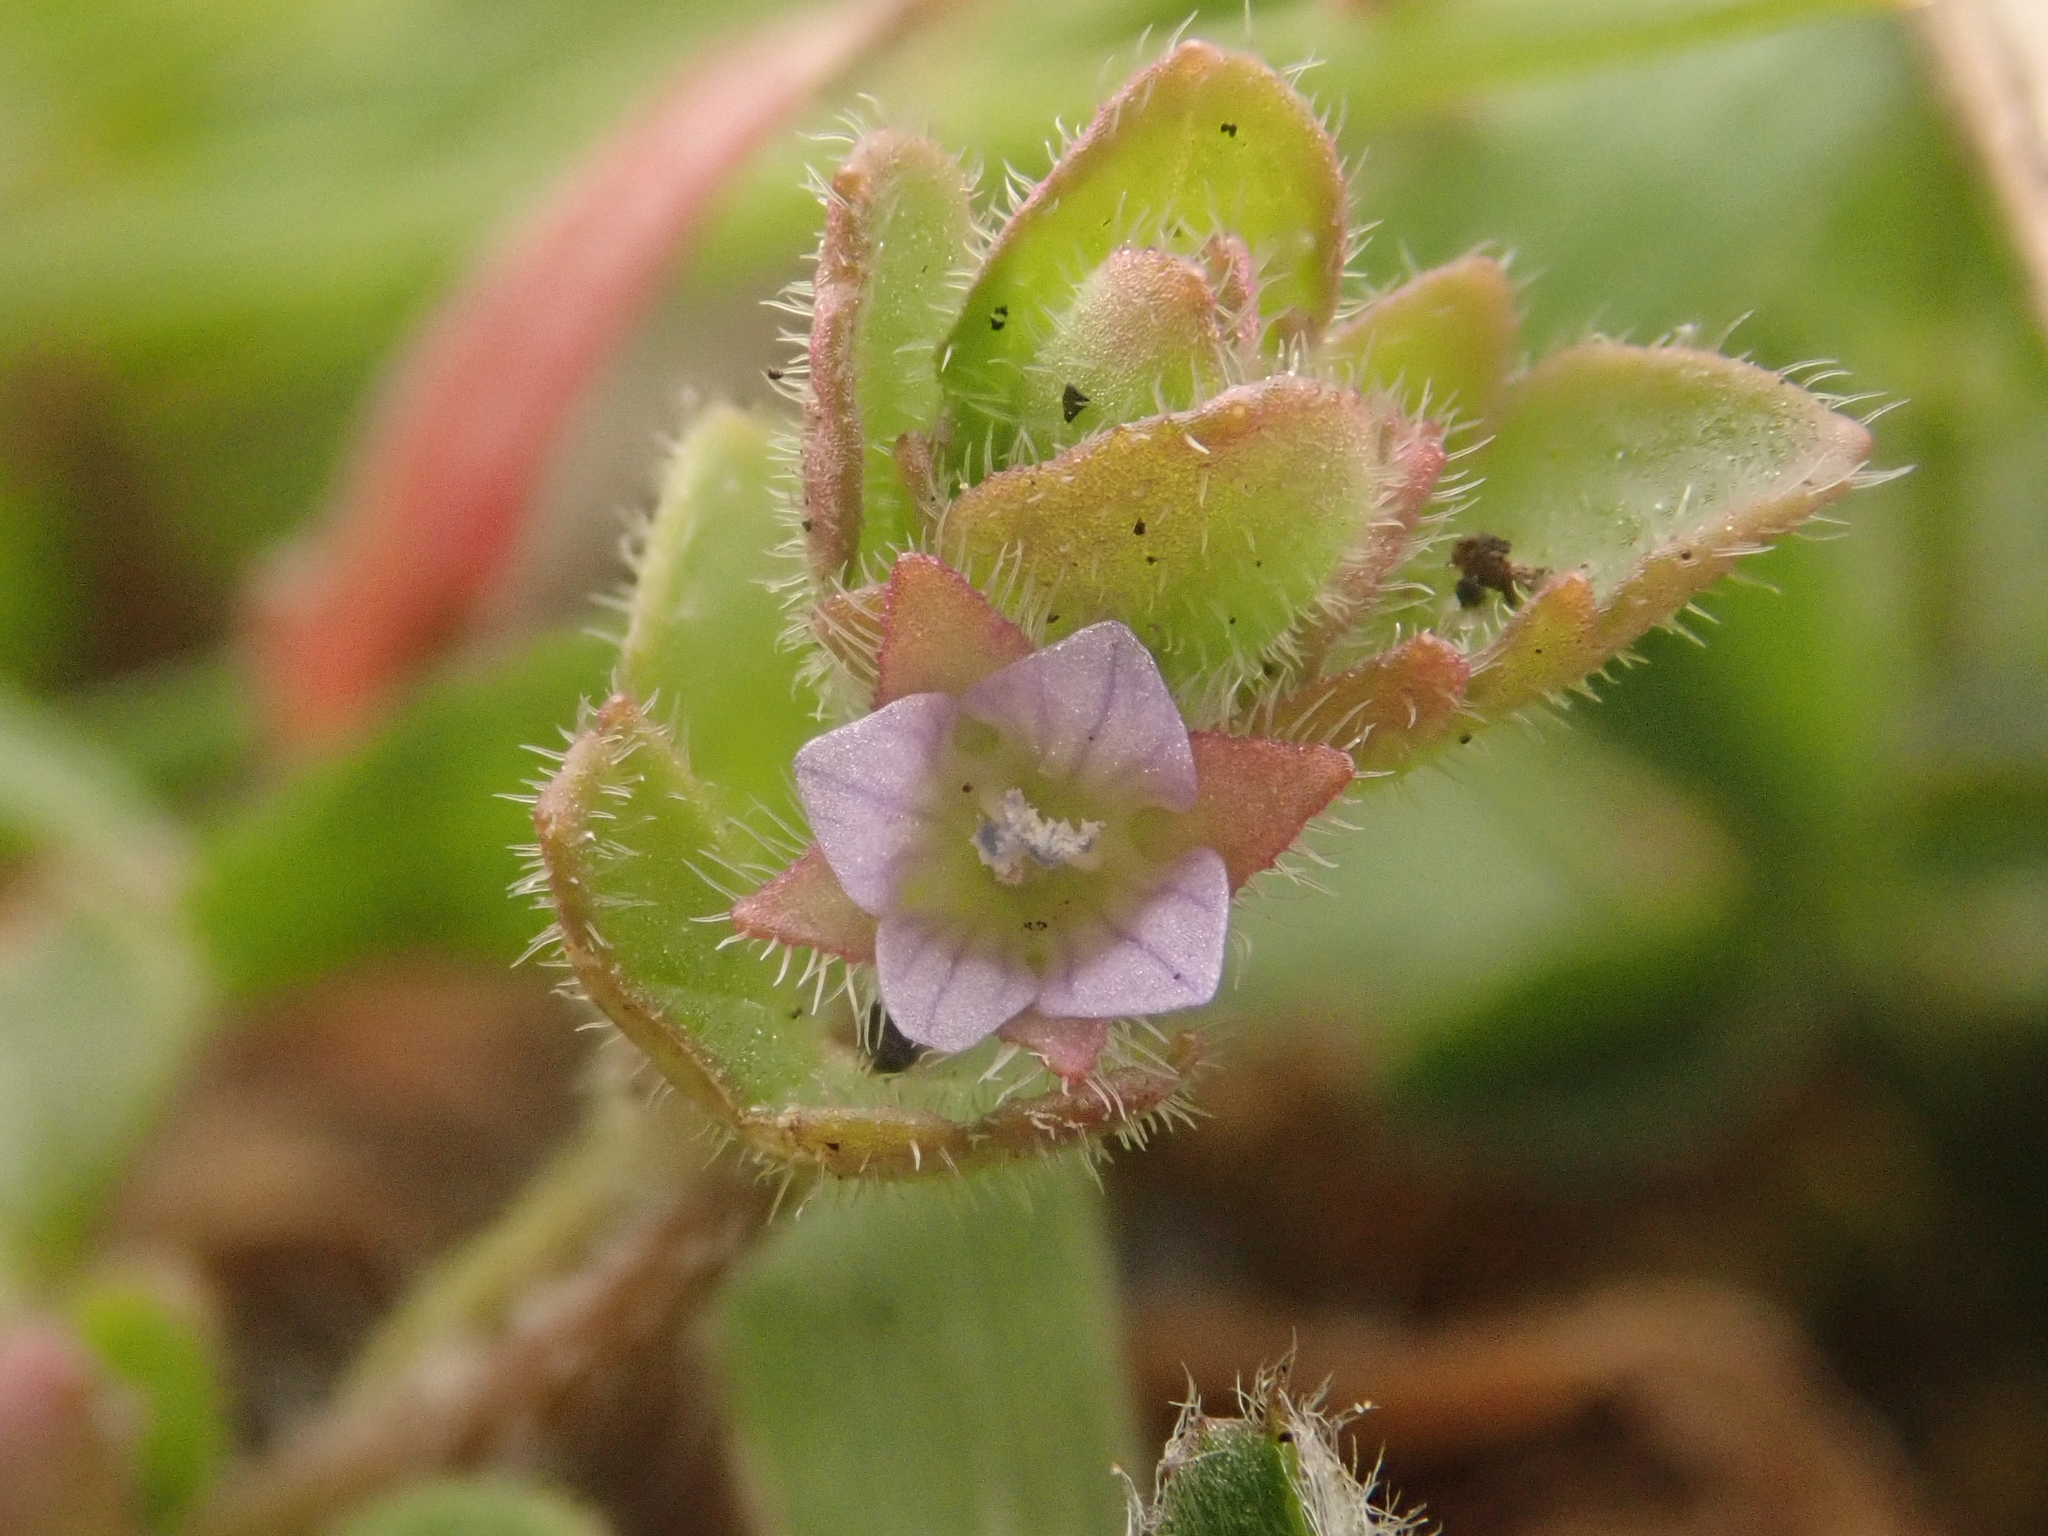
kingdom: Plantae
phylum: Tracheophyta
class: Magnoliopsida
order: Lamiales
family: Plantaginaceae
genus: Veronica
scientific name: Veronica sublobata
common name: False ivy-leaved speedwell
